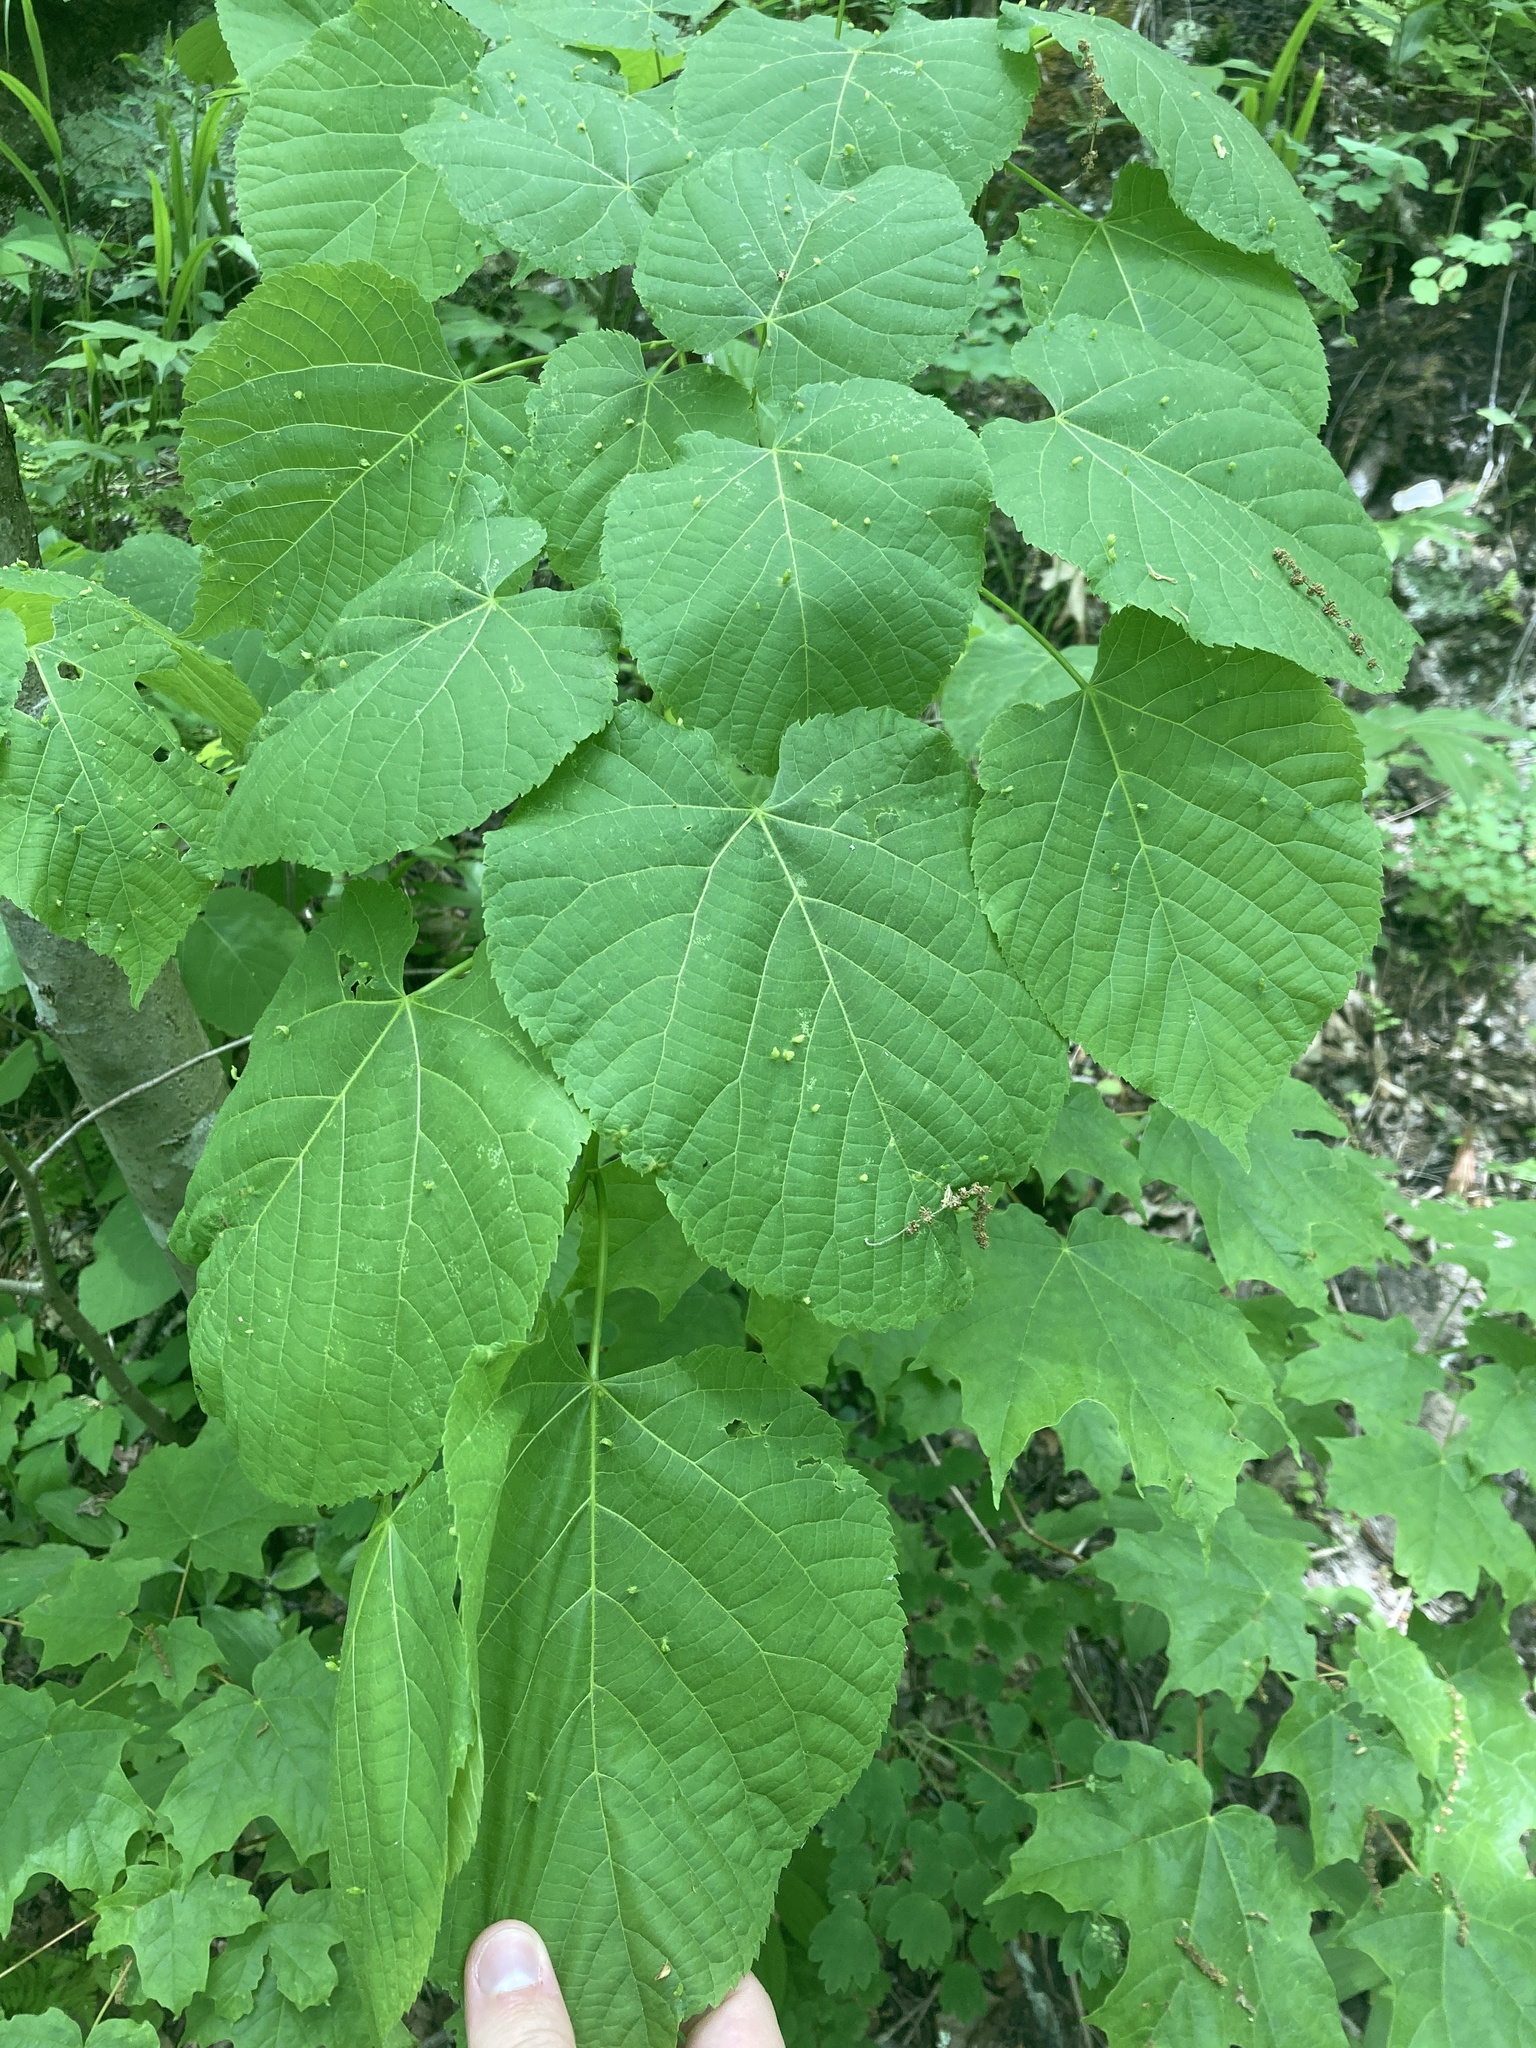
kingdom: Plantae
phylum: Tracheophyta
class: Magnoliopsida
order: Malvales
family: Malvaceae
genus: Tilia
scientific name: Tilia americana
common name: Basswood
